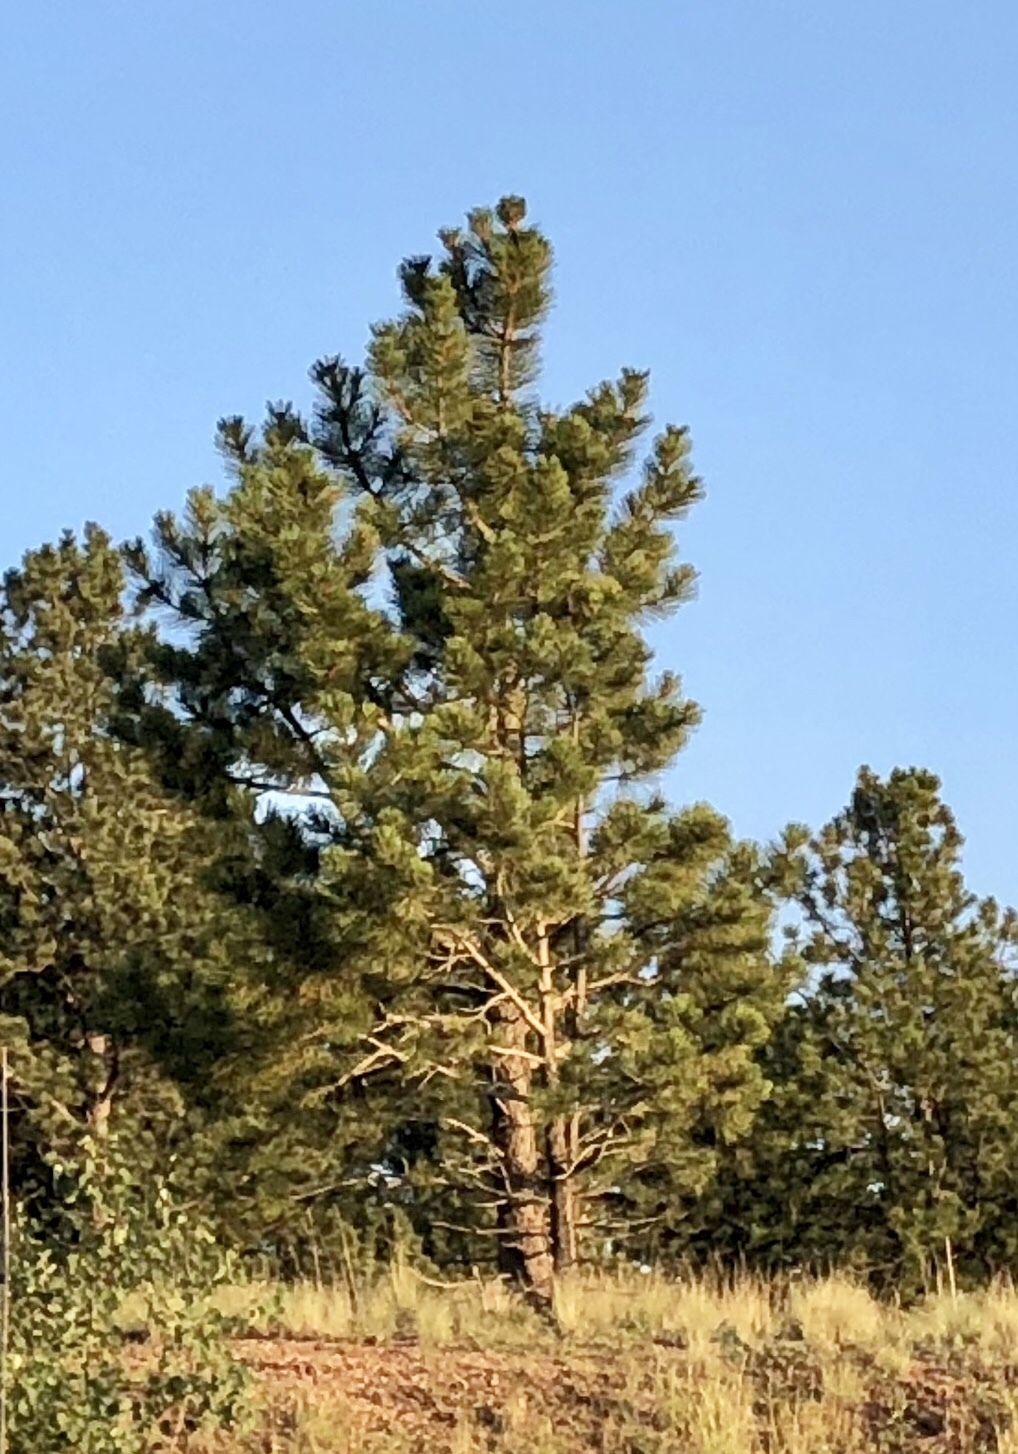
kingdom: Plantae
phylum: Tracheophyta
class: Pinopsida
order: Pinales
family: Pinaceae
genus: Pinus
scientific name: Pinus ponderosa
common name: Western yellow-pine
